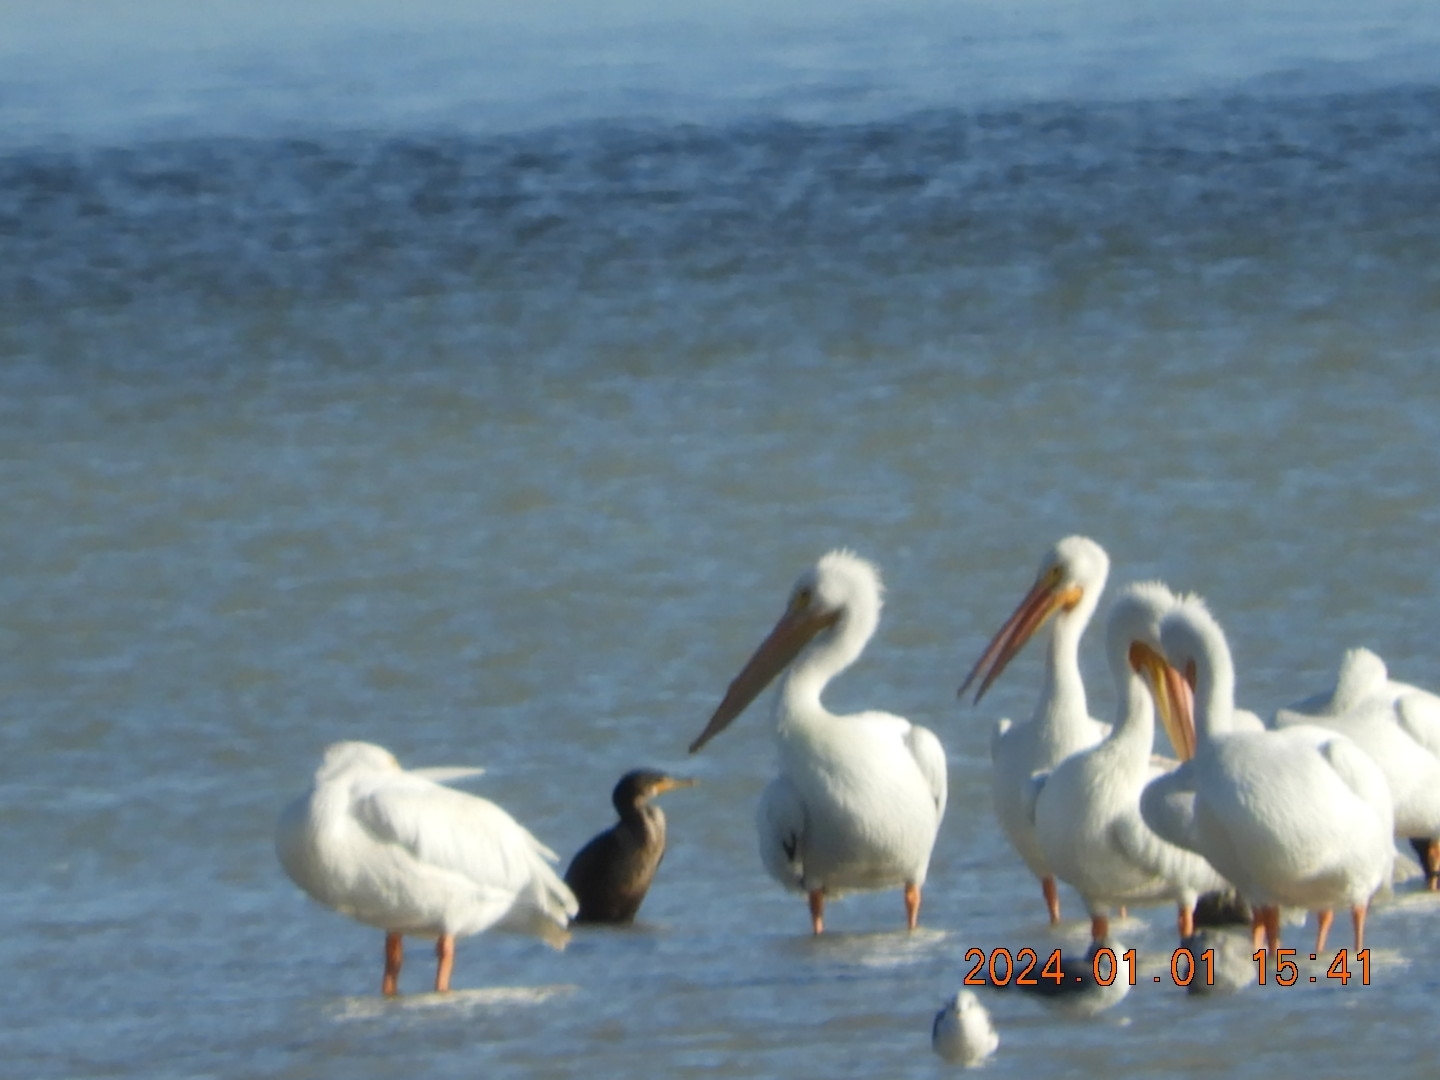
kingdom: Animalia
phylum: Chordata
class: Aves
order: Pelecaniformes
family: Pelecanidae
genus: Pelecanus
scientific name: Pelecanus erythrorhynchos
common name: American white pelican
